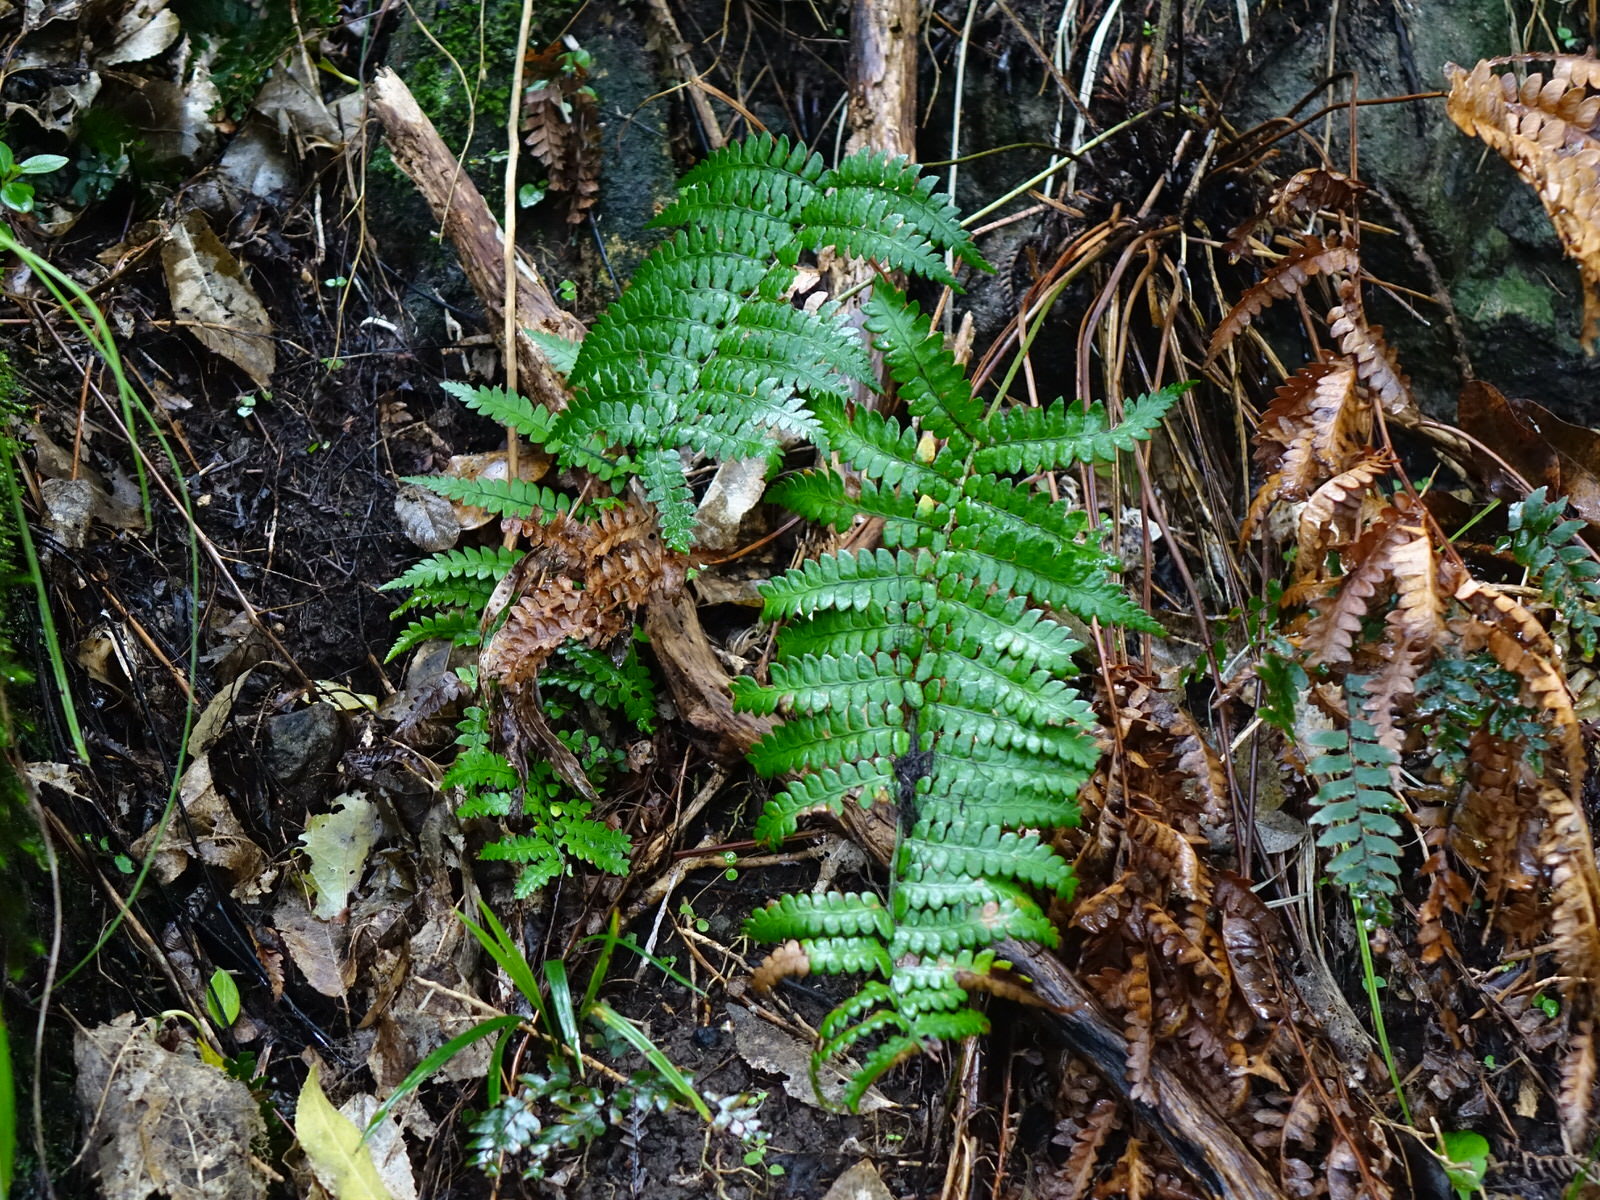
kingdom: Plantae
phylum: Tracheophyta
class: Polypodiopsida
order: Polypodiales
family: Dryopteridaceae
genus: Polystichum
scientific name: Polystichum wawranum
